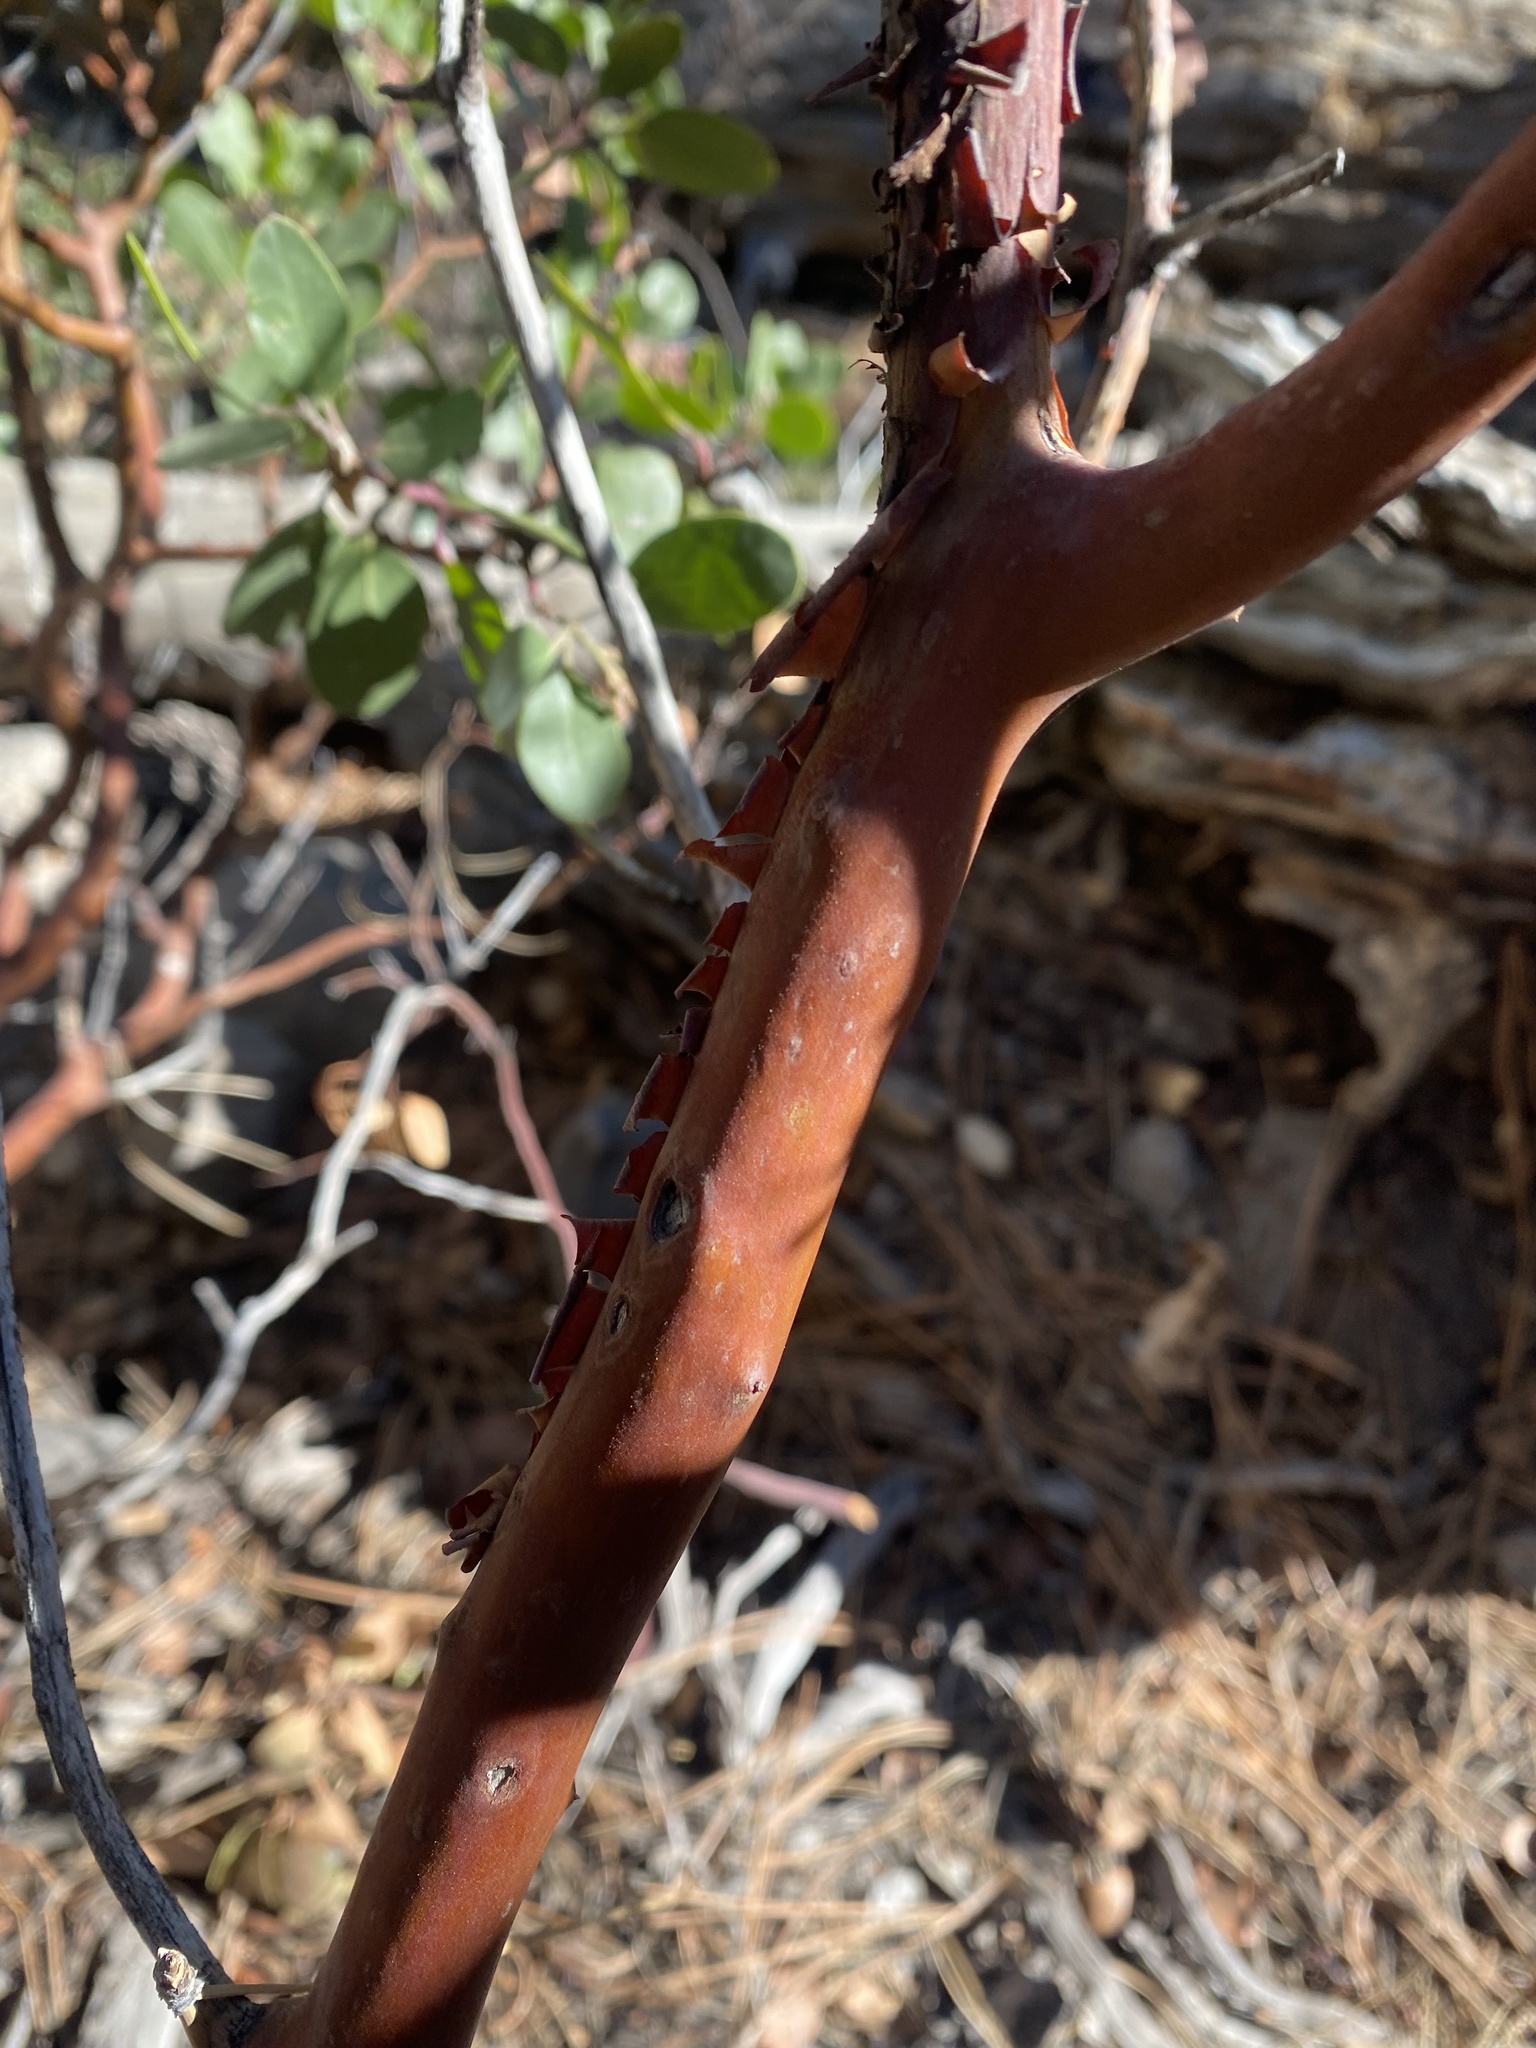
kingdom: Plantae
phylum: Tracheophyta
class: Magnoliopsida
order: Ericales
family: Ericaceae
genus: Arctostaphylos
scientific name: Arctostaphylos patula
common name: Green-leaf manzanita
